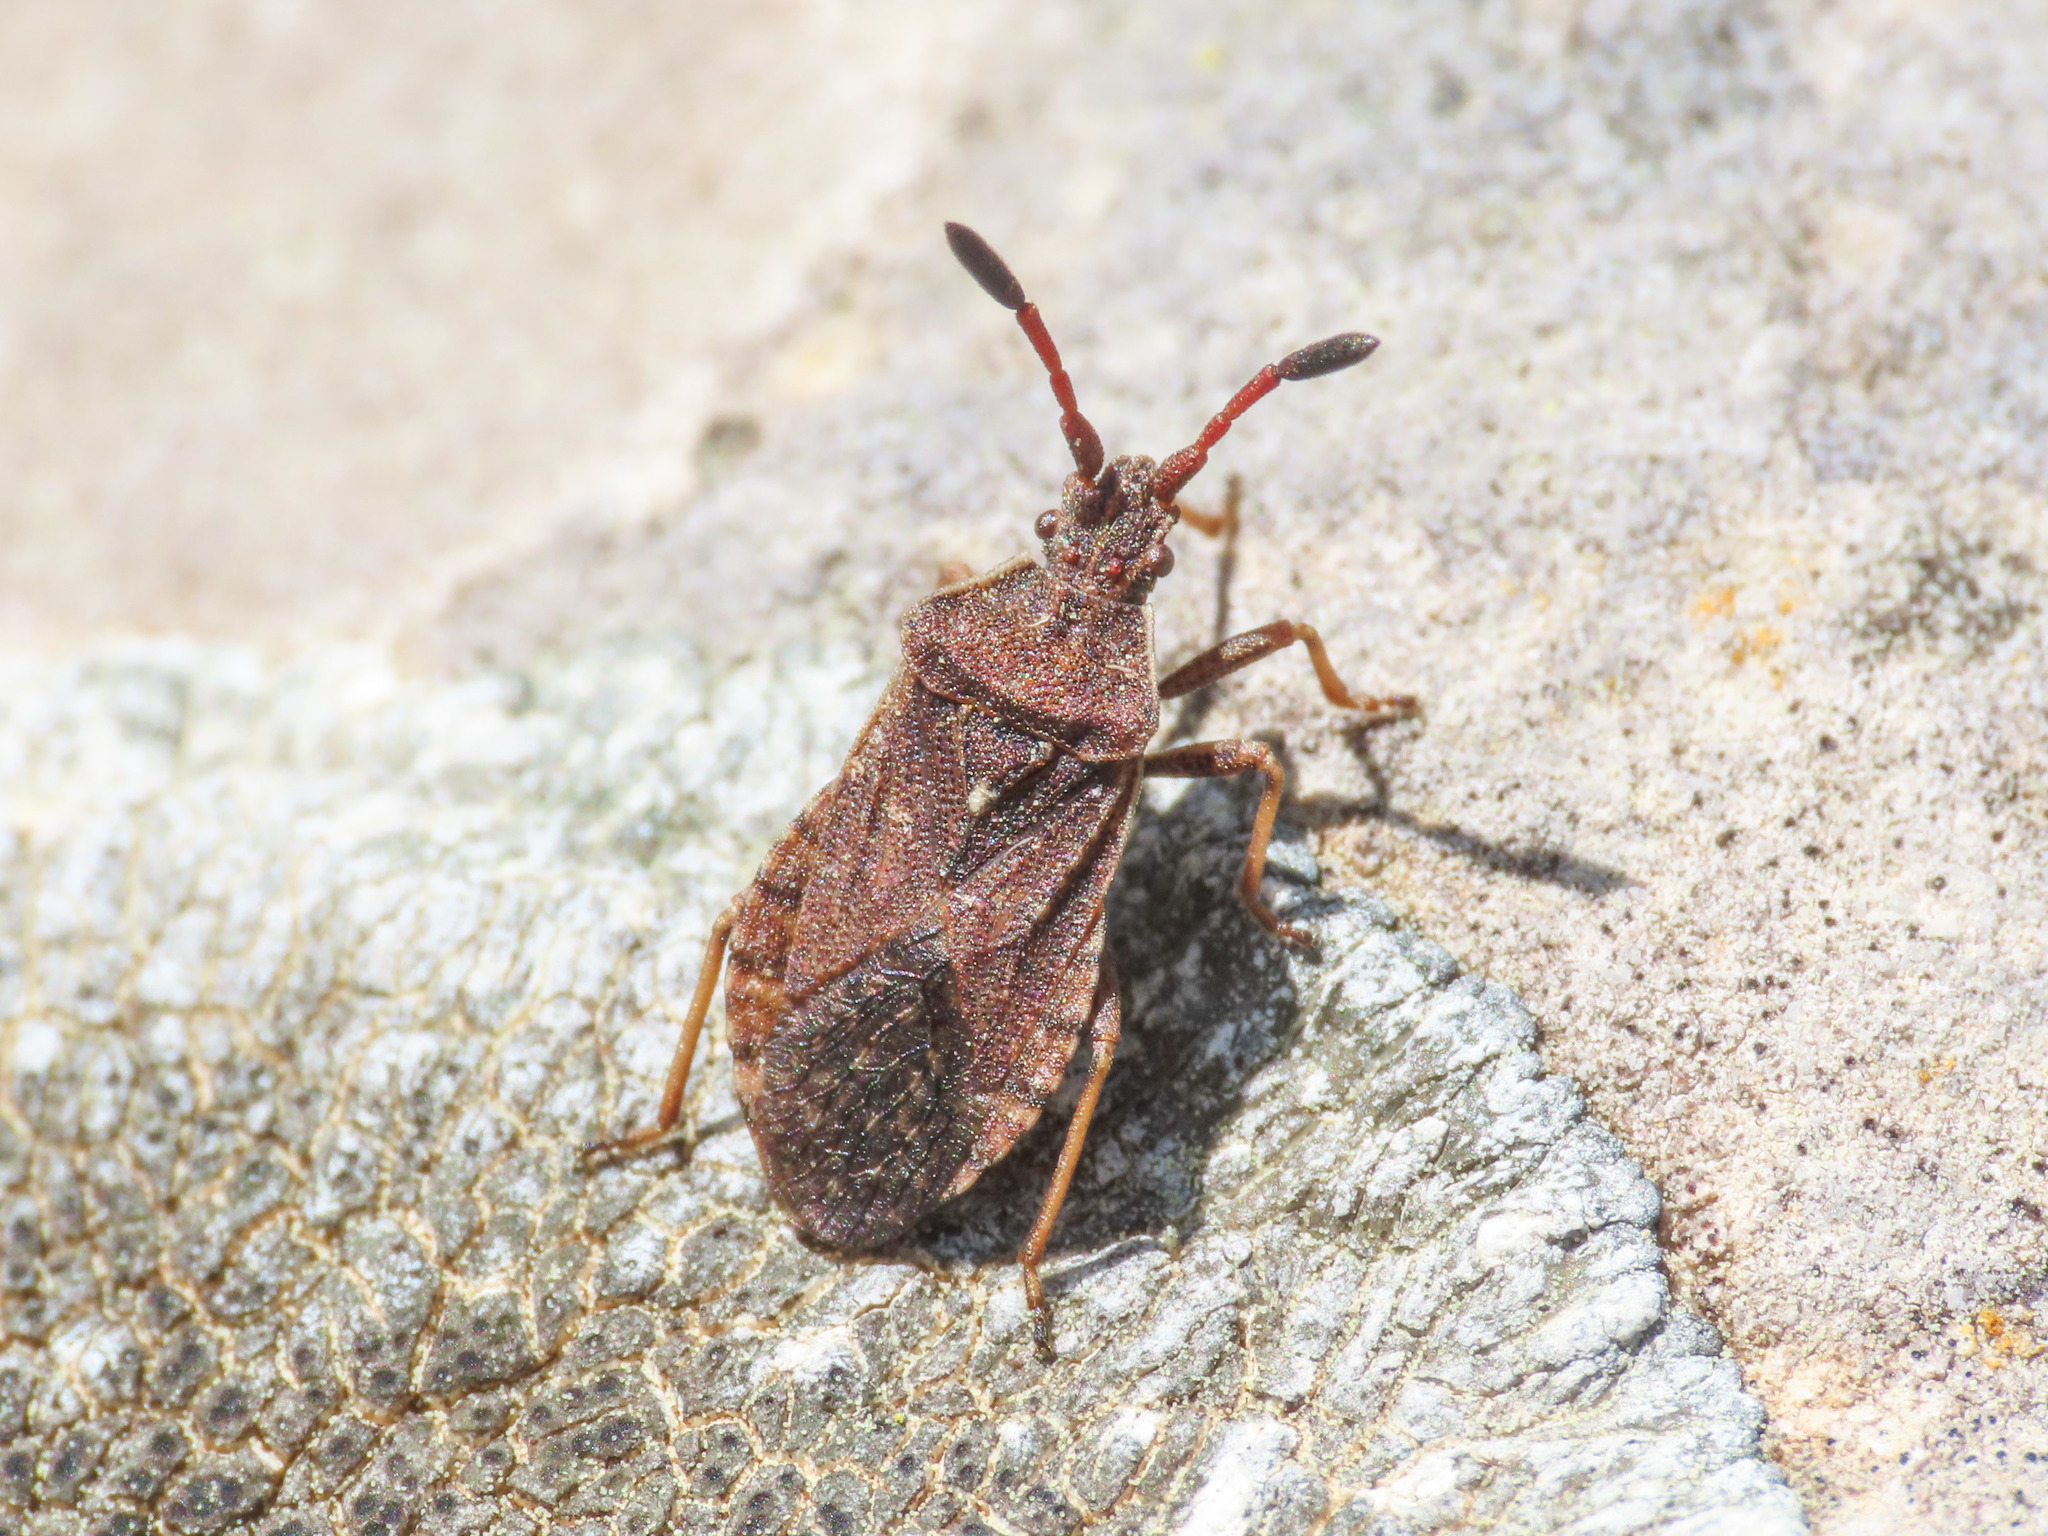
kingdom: Animalia
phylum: Arthropoda
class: Insecta
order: Hemiptera
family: Coreidae
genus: Ulmicola
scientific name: Ulmicola spinipes
